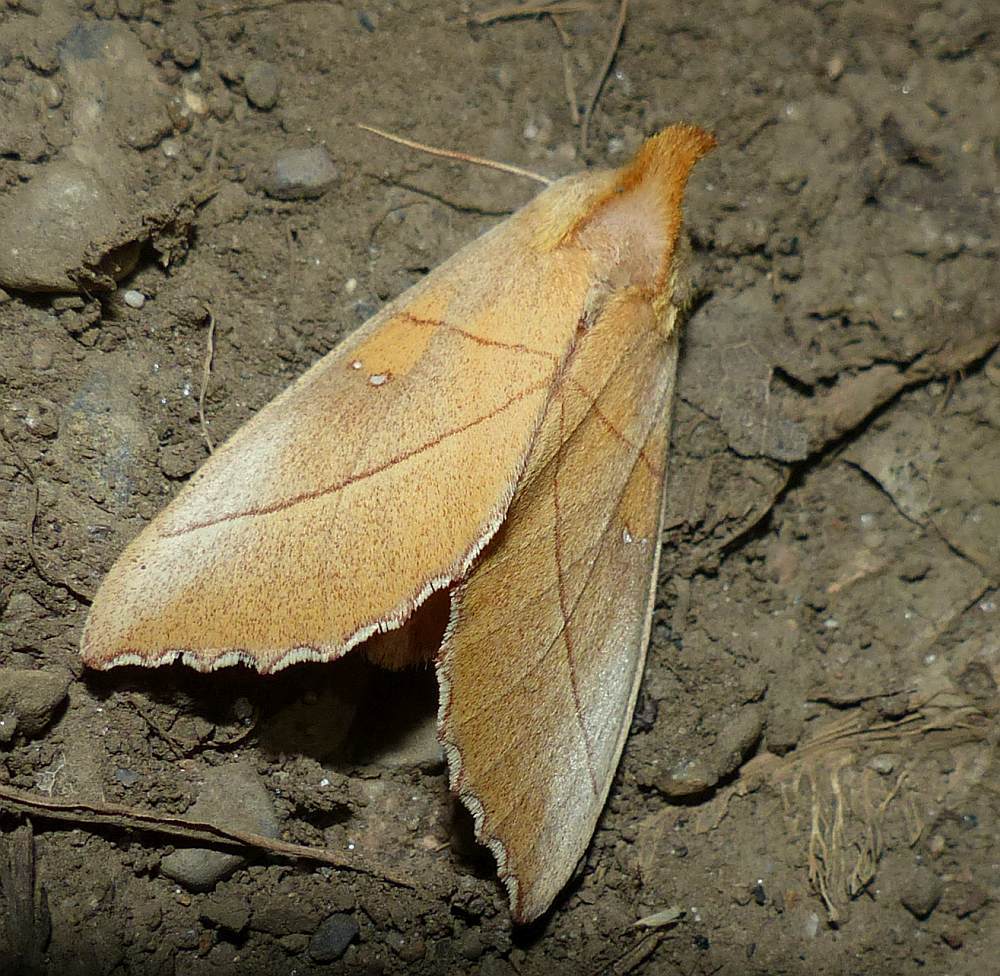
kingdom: Animalia
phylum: Arthropoda
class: Insecta
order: Lepidoptera
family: Notodontidae
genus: Nadata
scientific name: Nadata gibbosa
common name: White-dotted prominent
